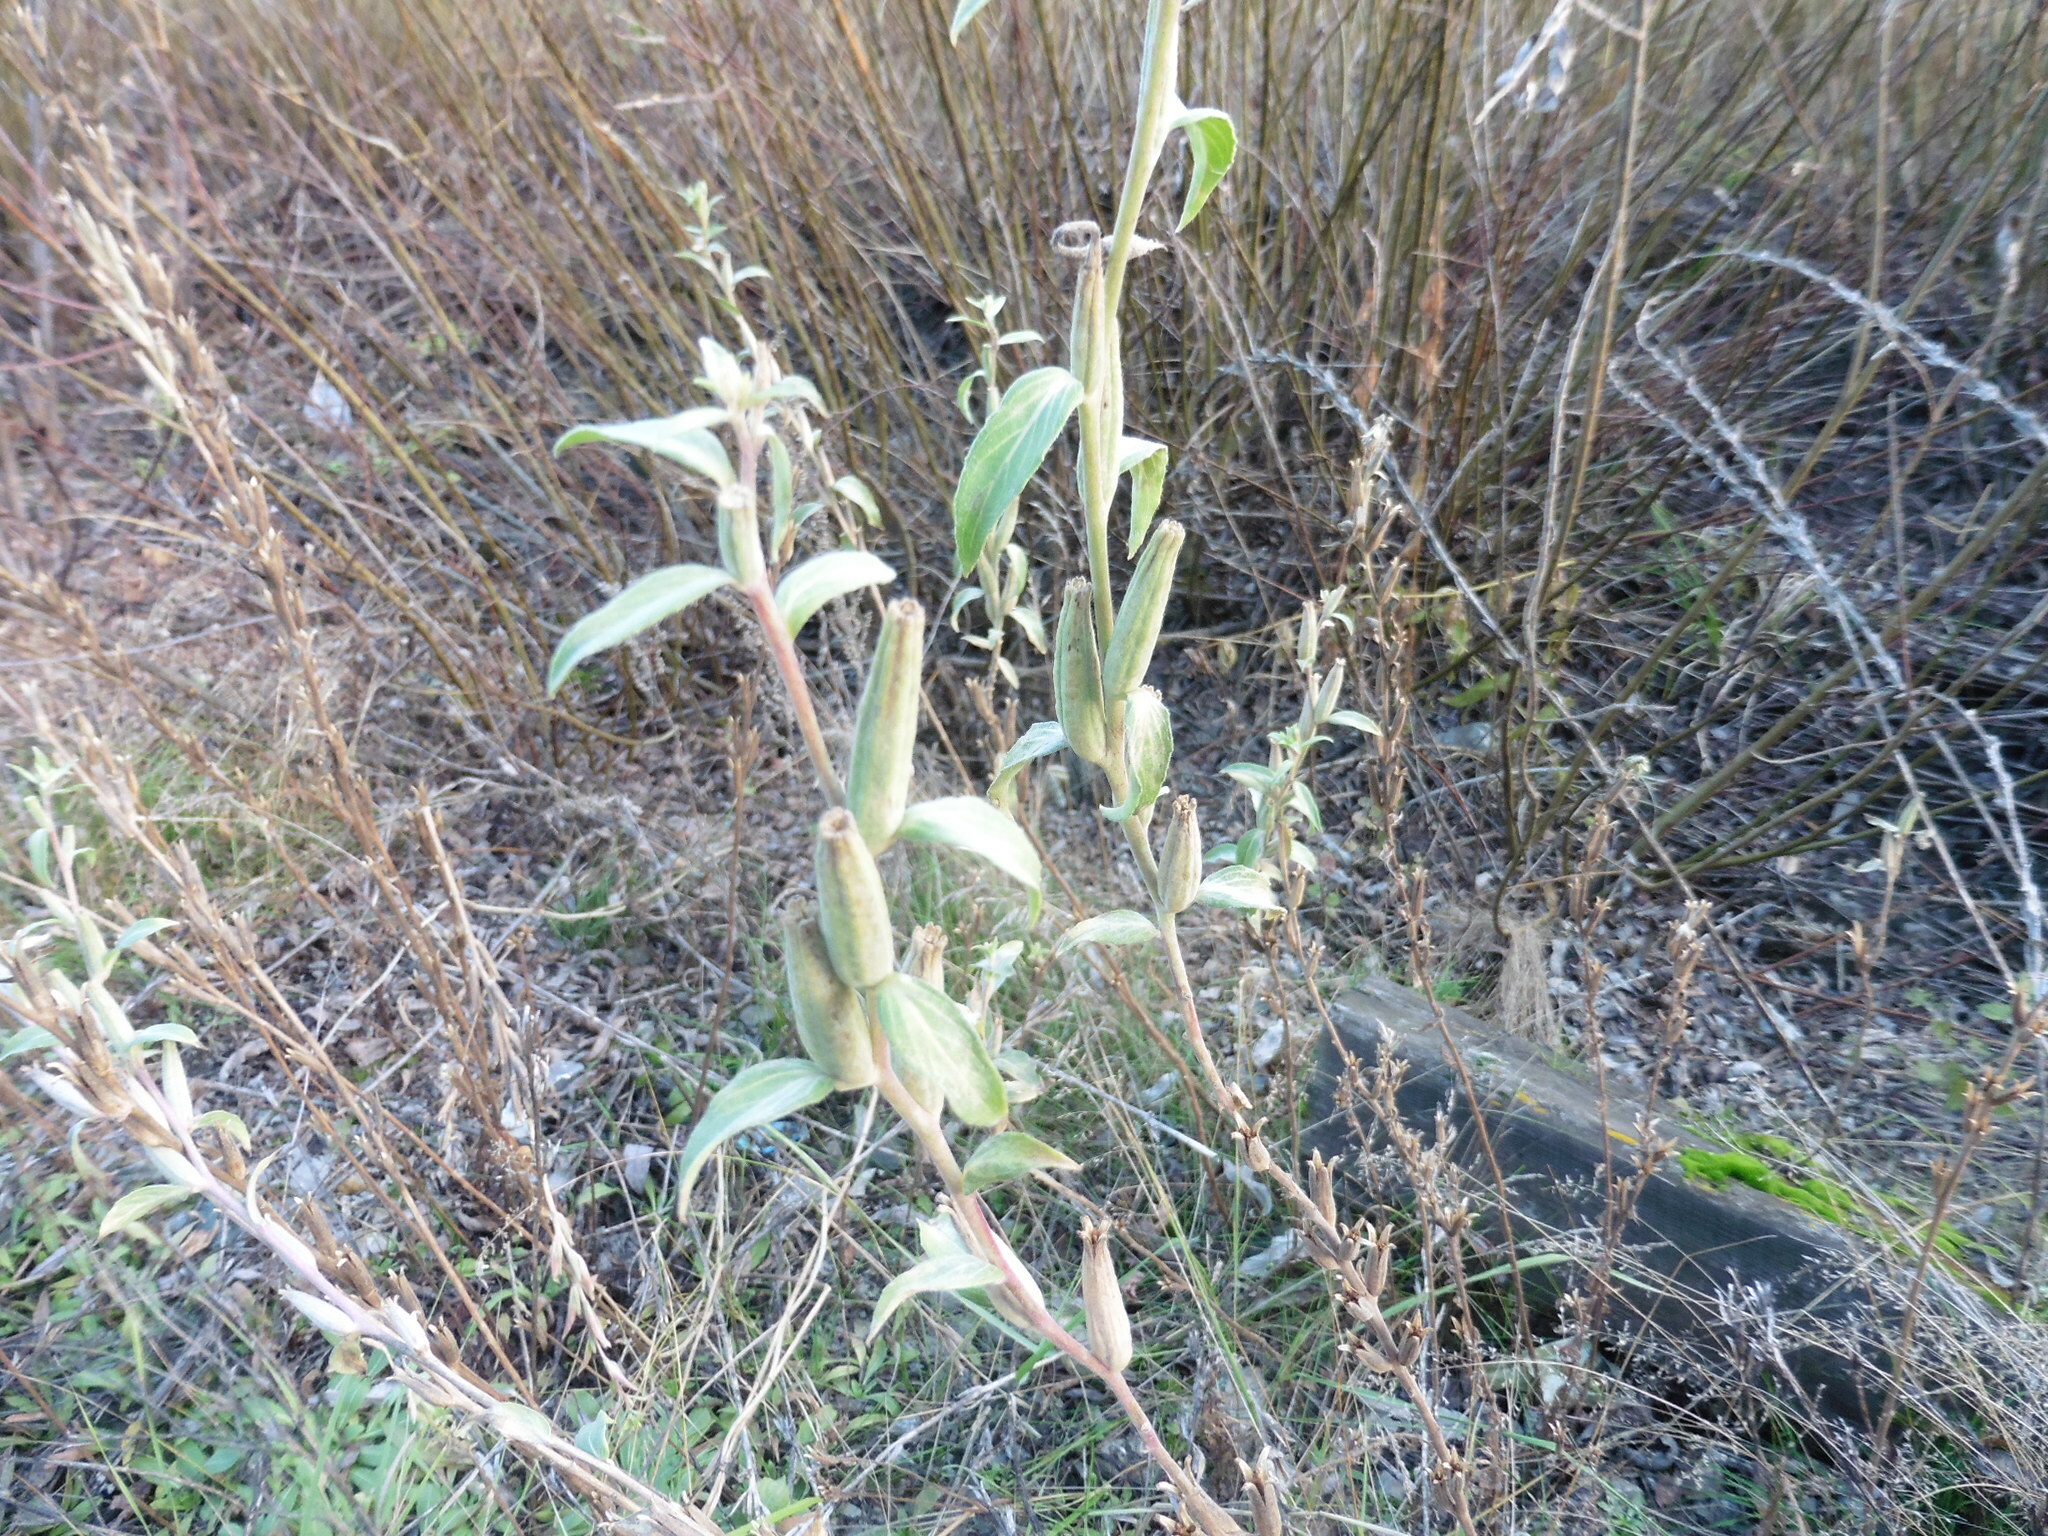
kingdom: Plantae
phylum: Tracheophyta
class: Magnoliopsida
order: Myrtales
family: Onagraceae
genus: Oenothera
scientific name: Oenothera villosa
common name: Hairy evening-primrose
